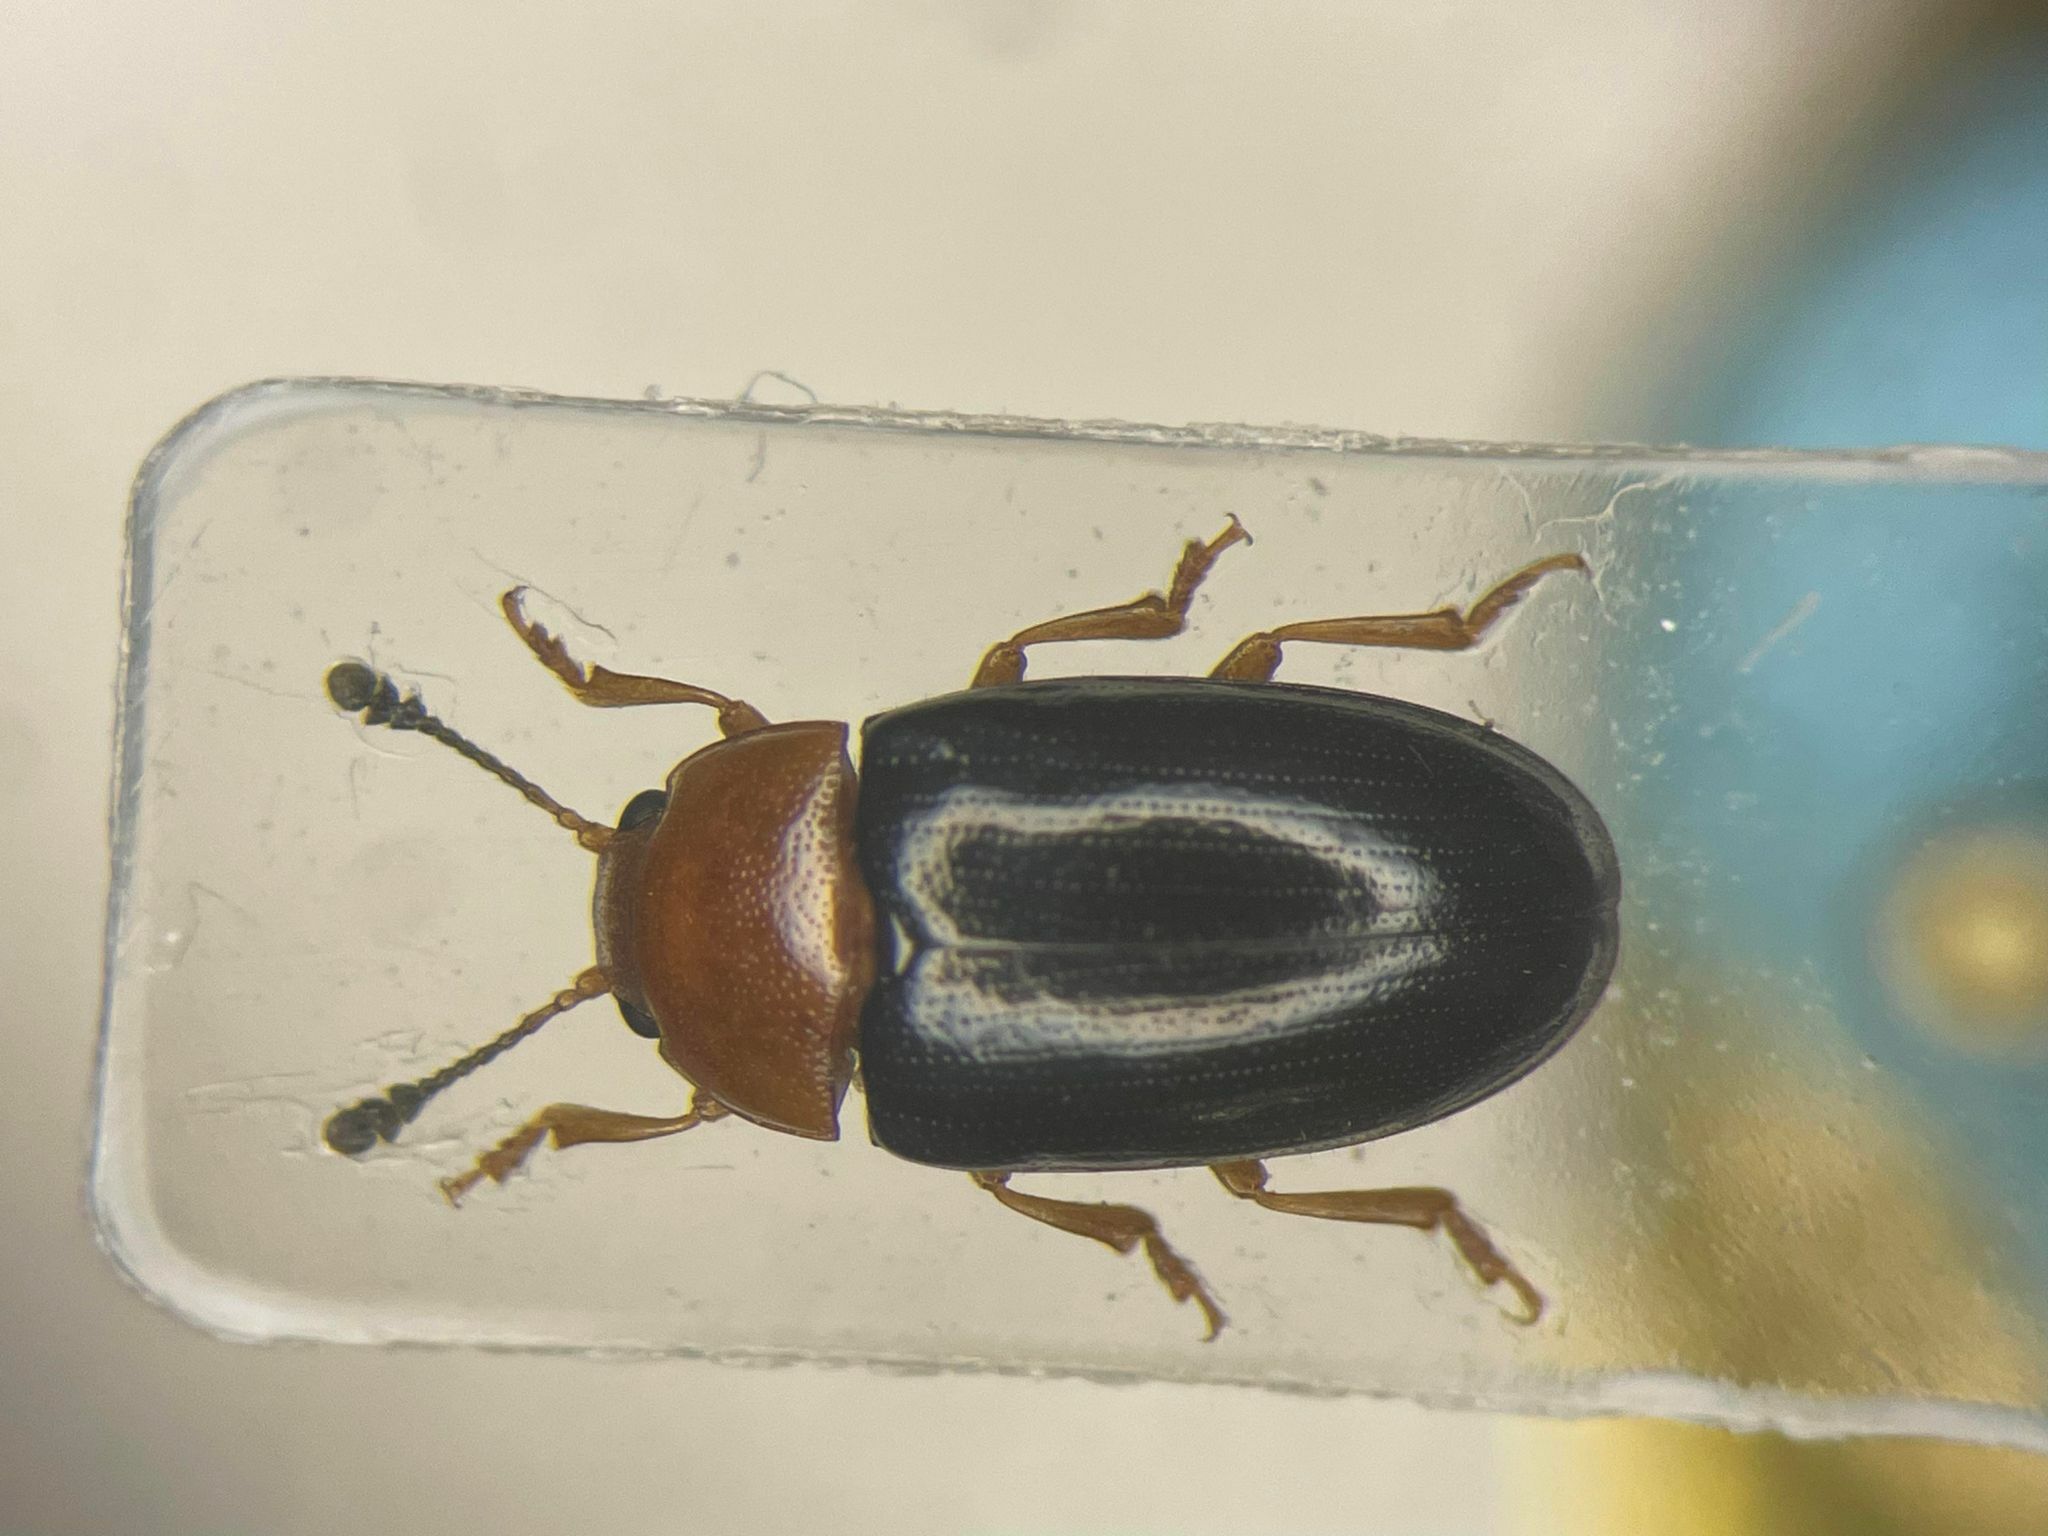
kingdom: Animalia
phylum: Arthropoda
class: Insecta
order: Coleoptera
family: Erotylidae
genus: Triplax
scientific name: Triplax thoracica
